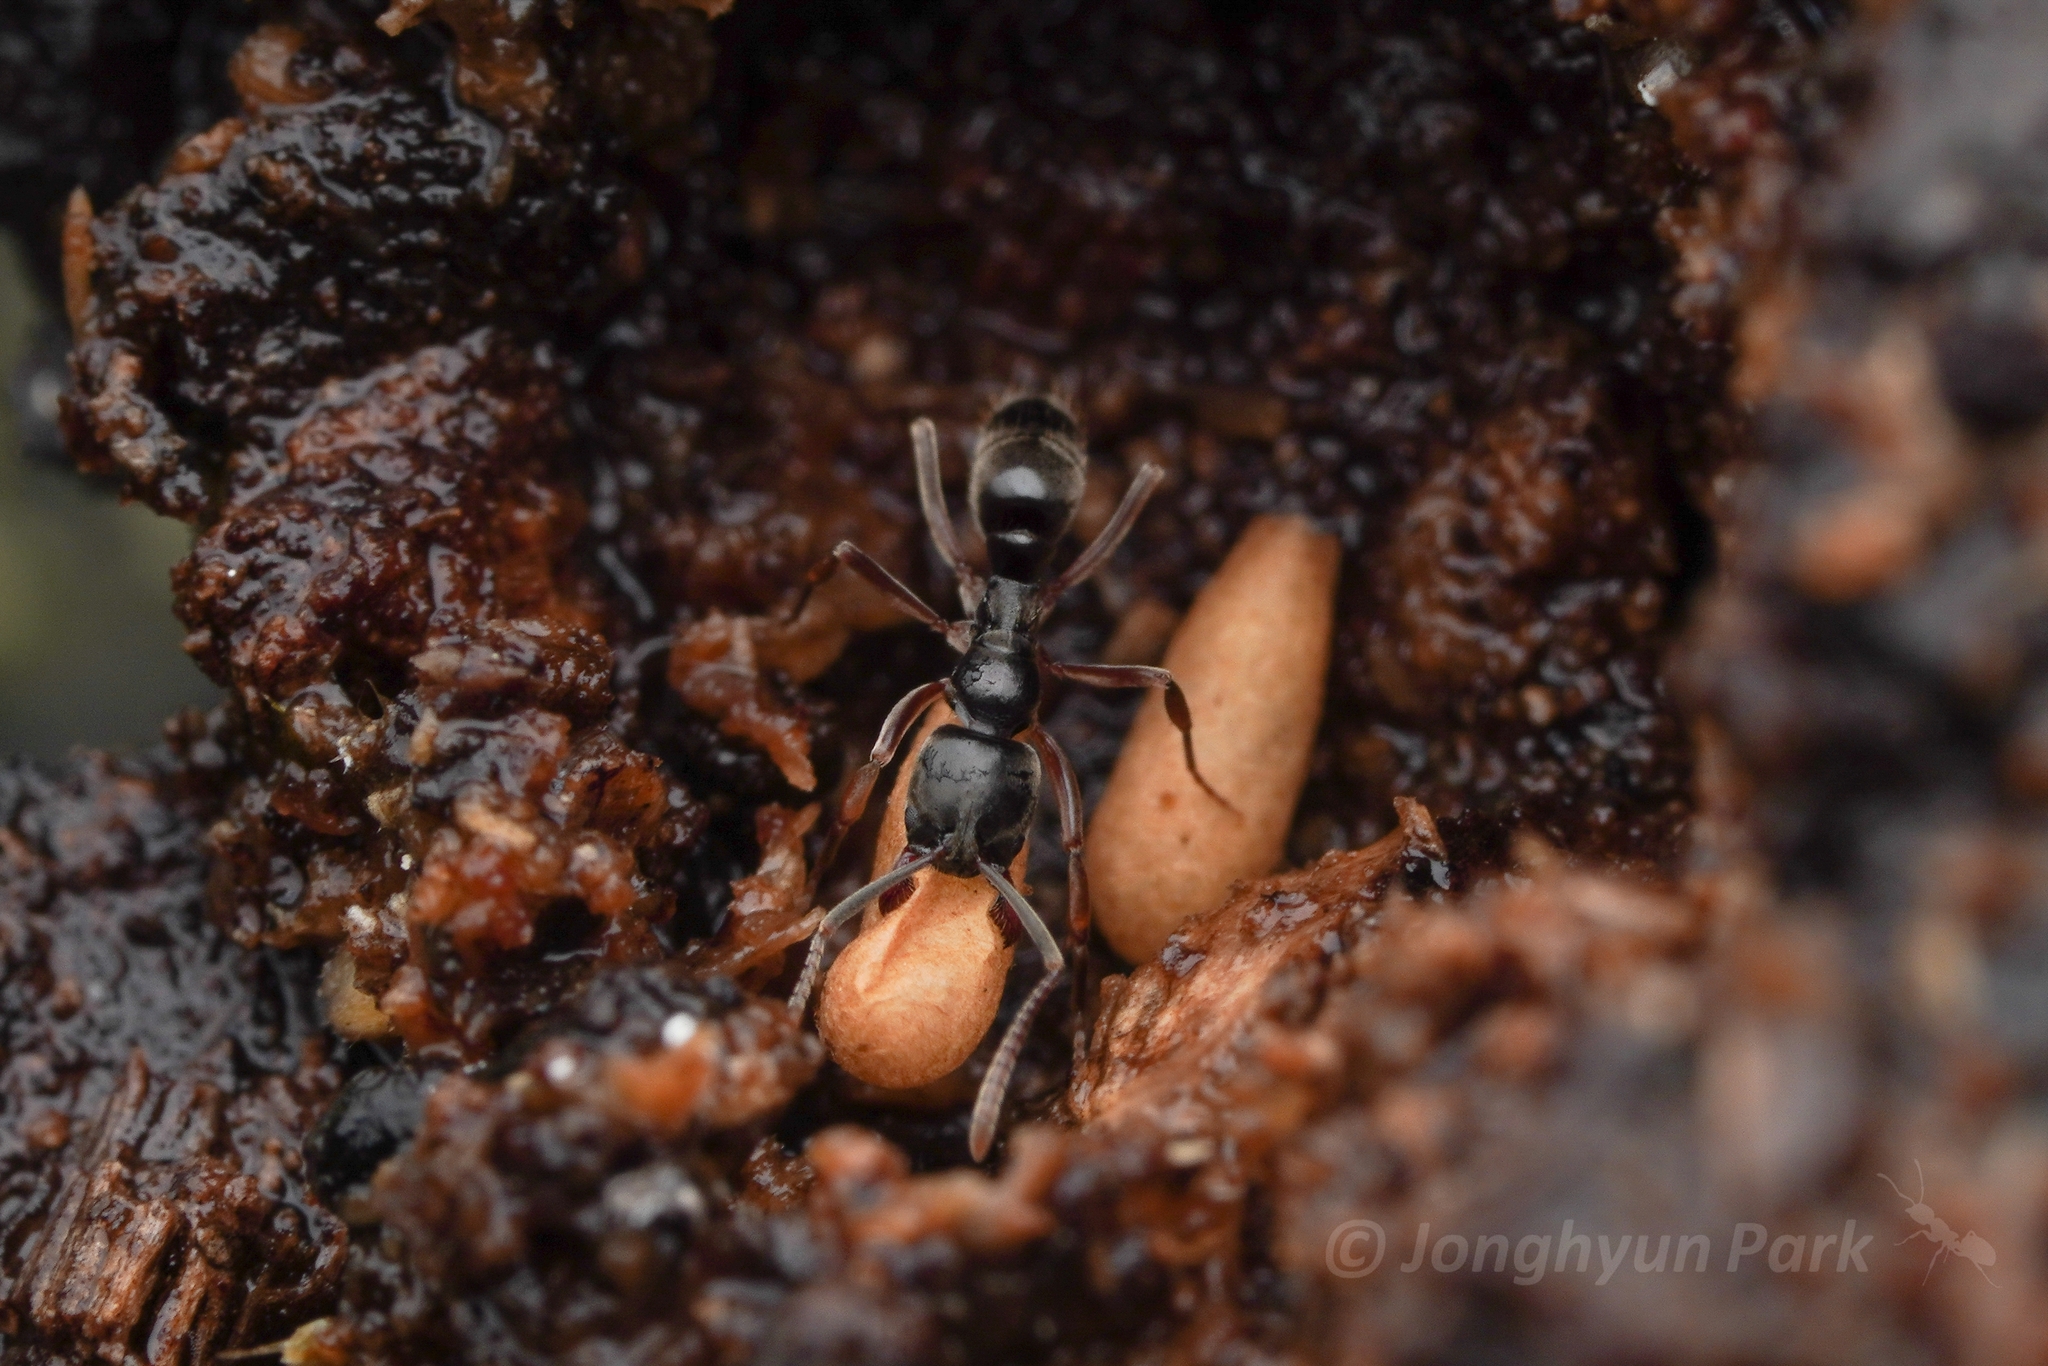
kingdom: Animalia
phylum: Arthropoda
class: Insecta
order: Hymenoptera
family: Formicidae
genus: Brachyponera
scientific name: Brachyponera
